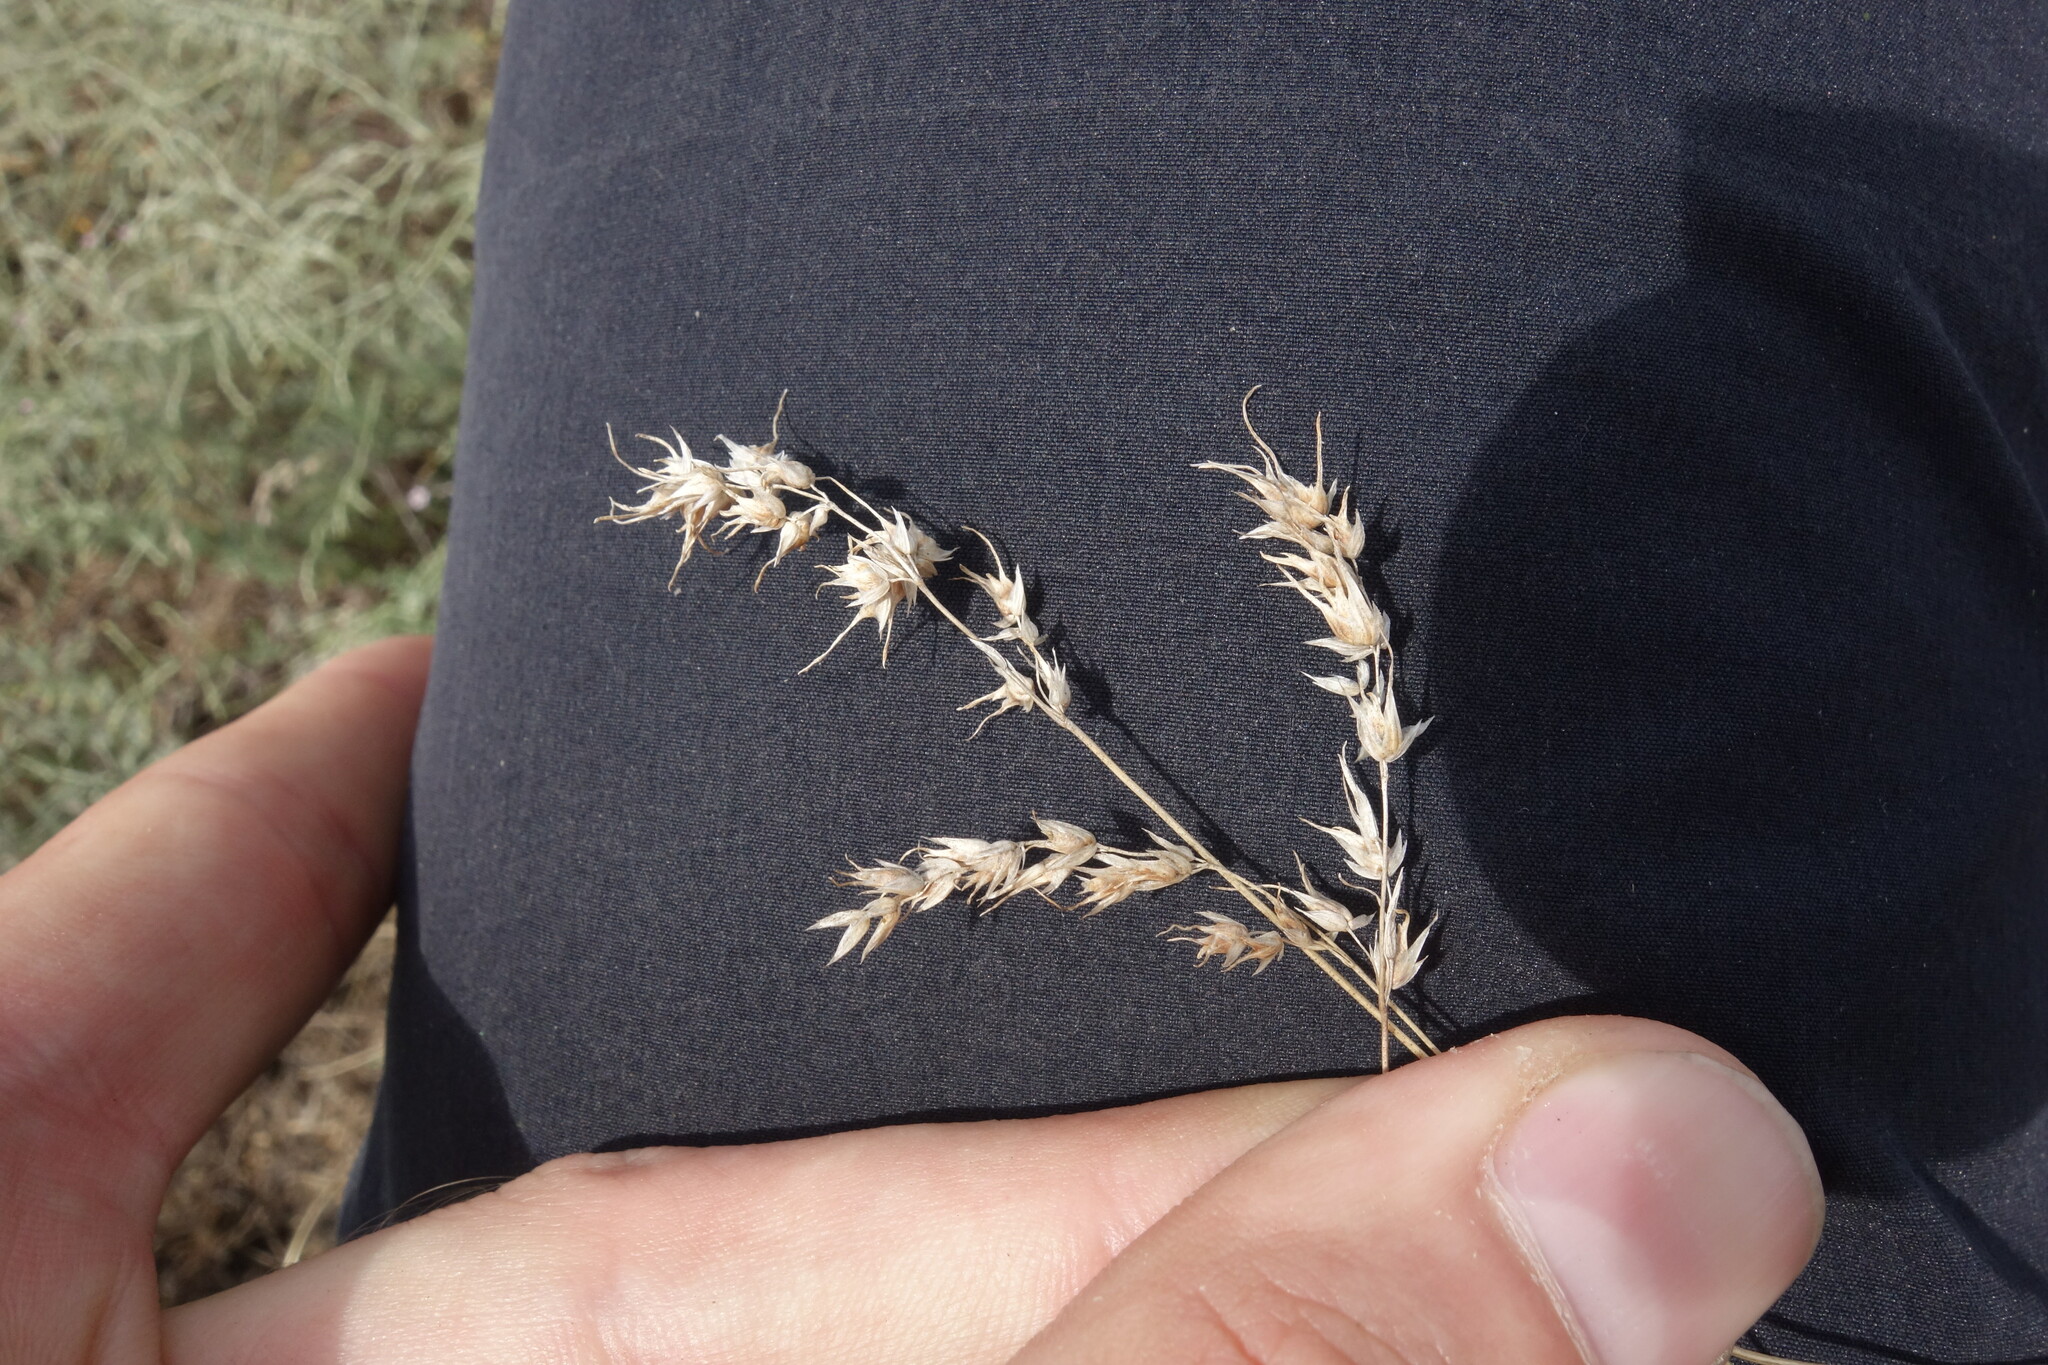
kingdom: Plantae
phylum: Tracheophyta
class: Liliopsida
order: Poales
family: Poaceae
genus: Poa
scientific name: Poa bulbosa
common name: Bulbous bluegrass
